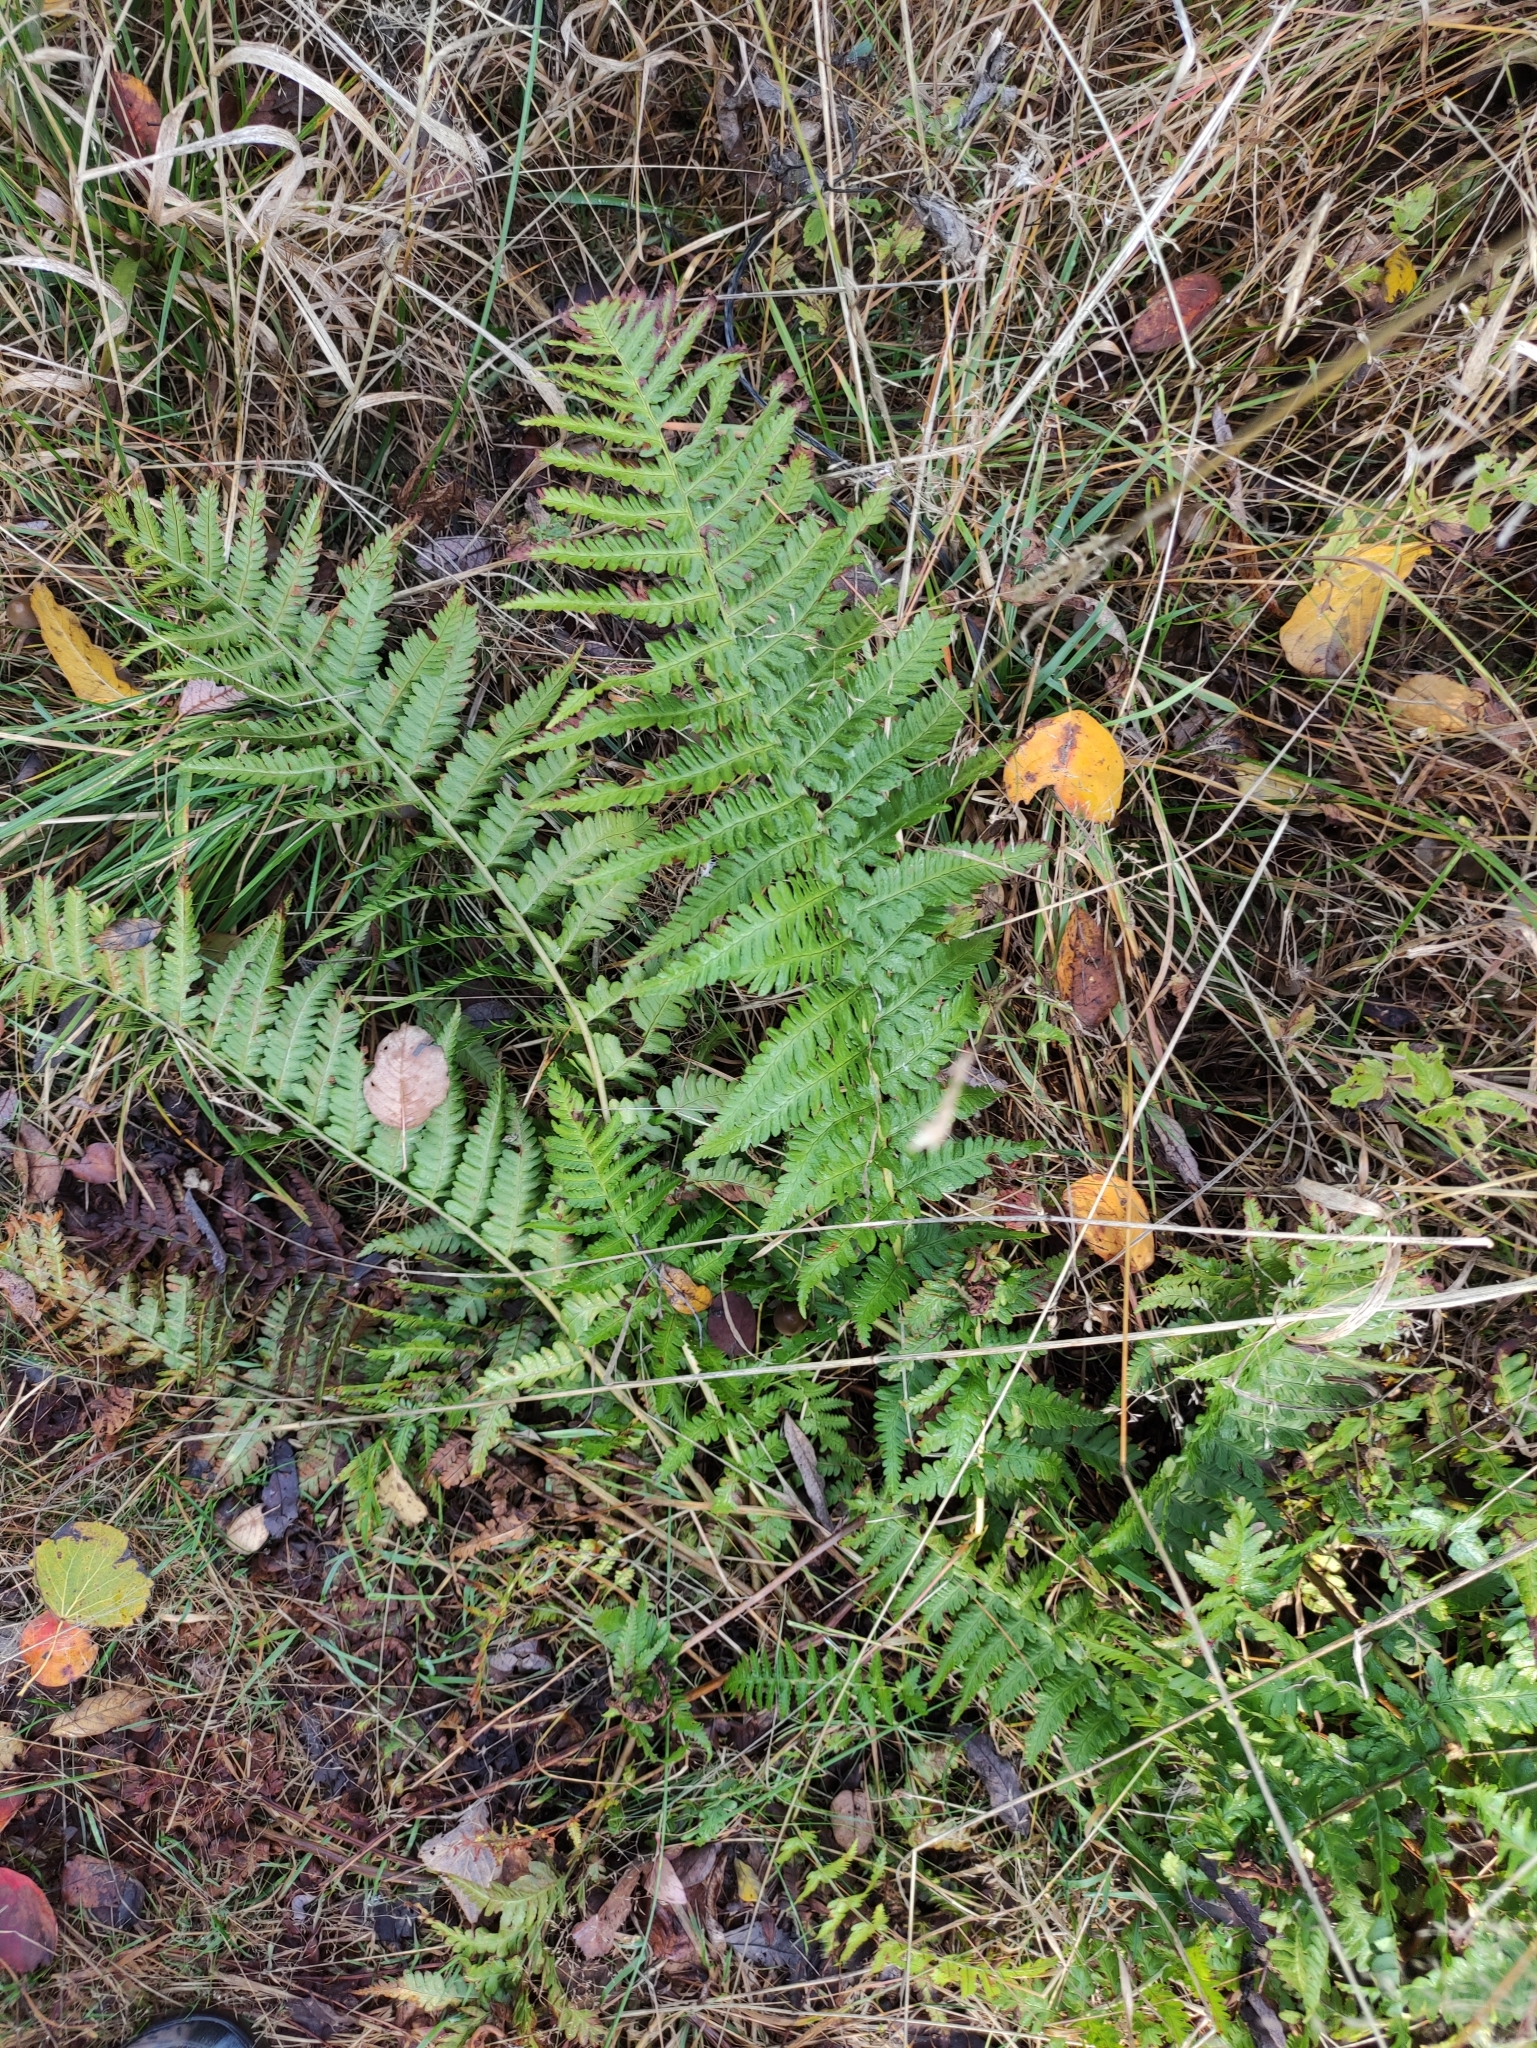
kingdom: Plantae
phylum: Tracheophyta
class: Polypodiopsida
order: Polypodiales
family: Dryopteridaceae
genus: Dryopteris
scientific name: Dryopteris filix-mas
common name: Male fern
